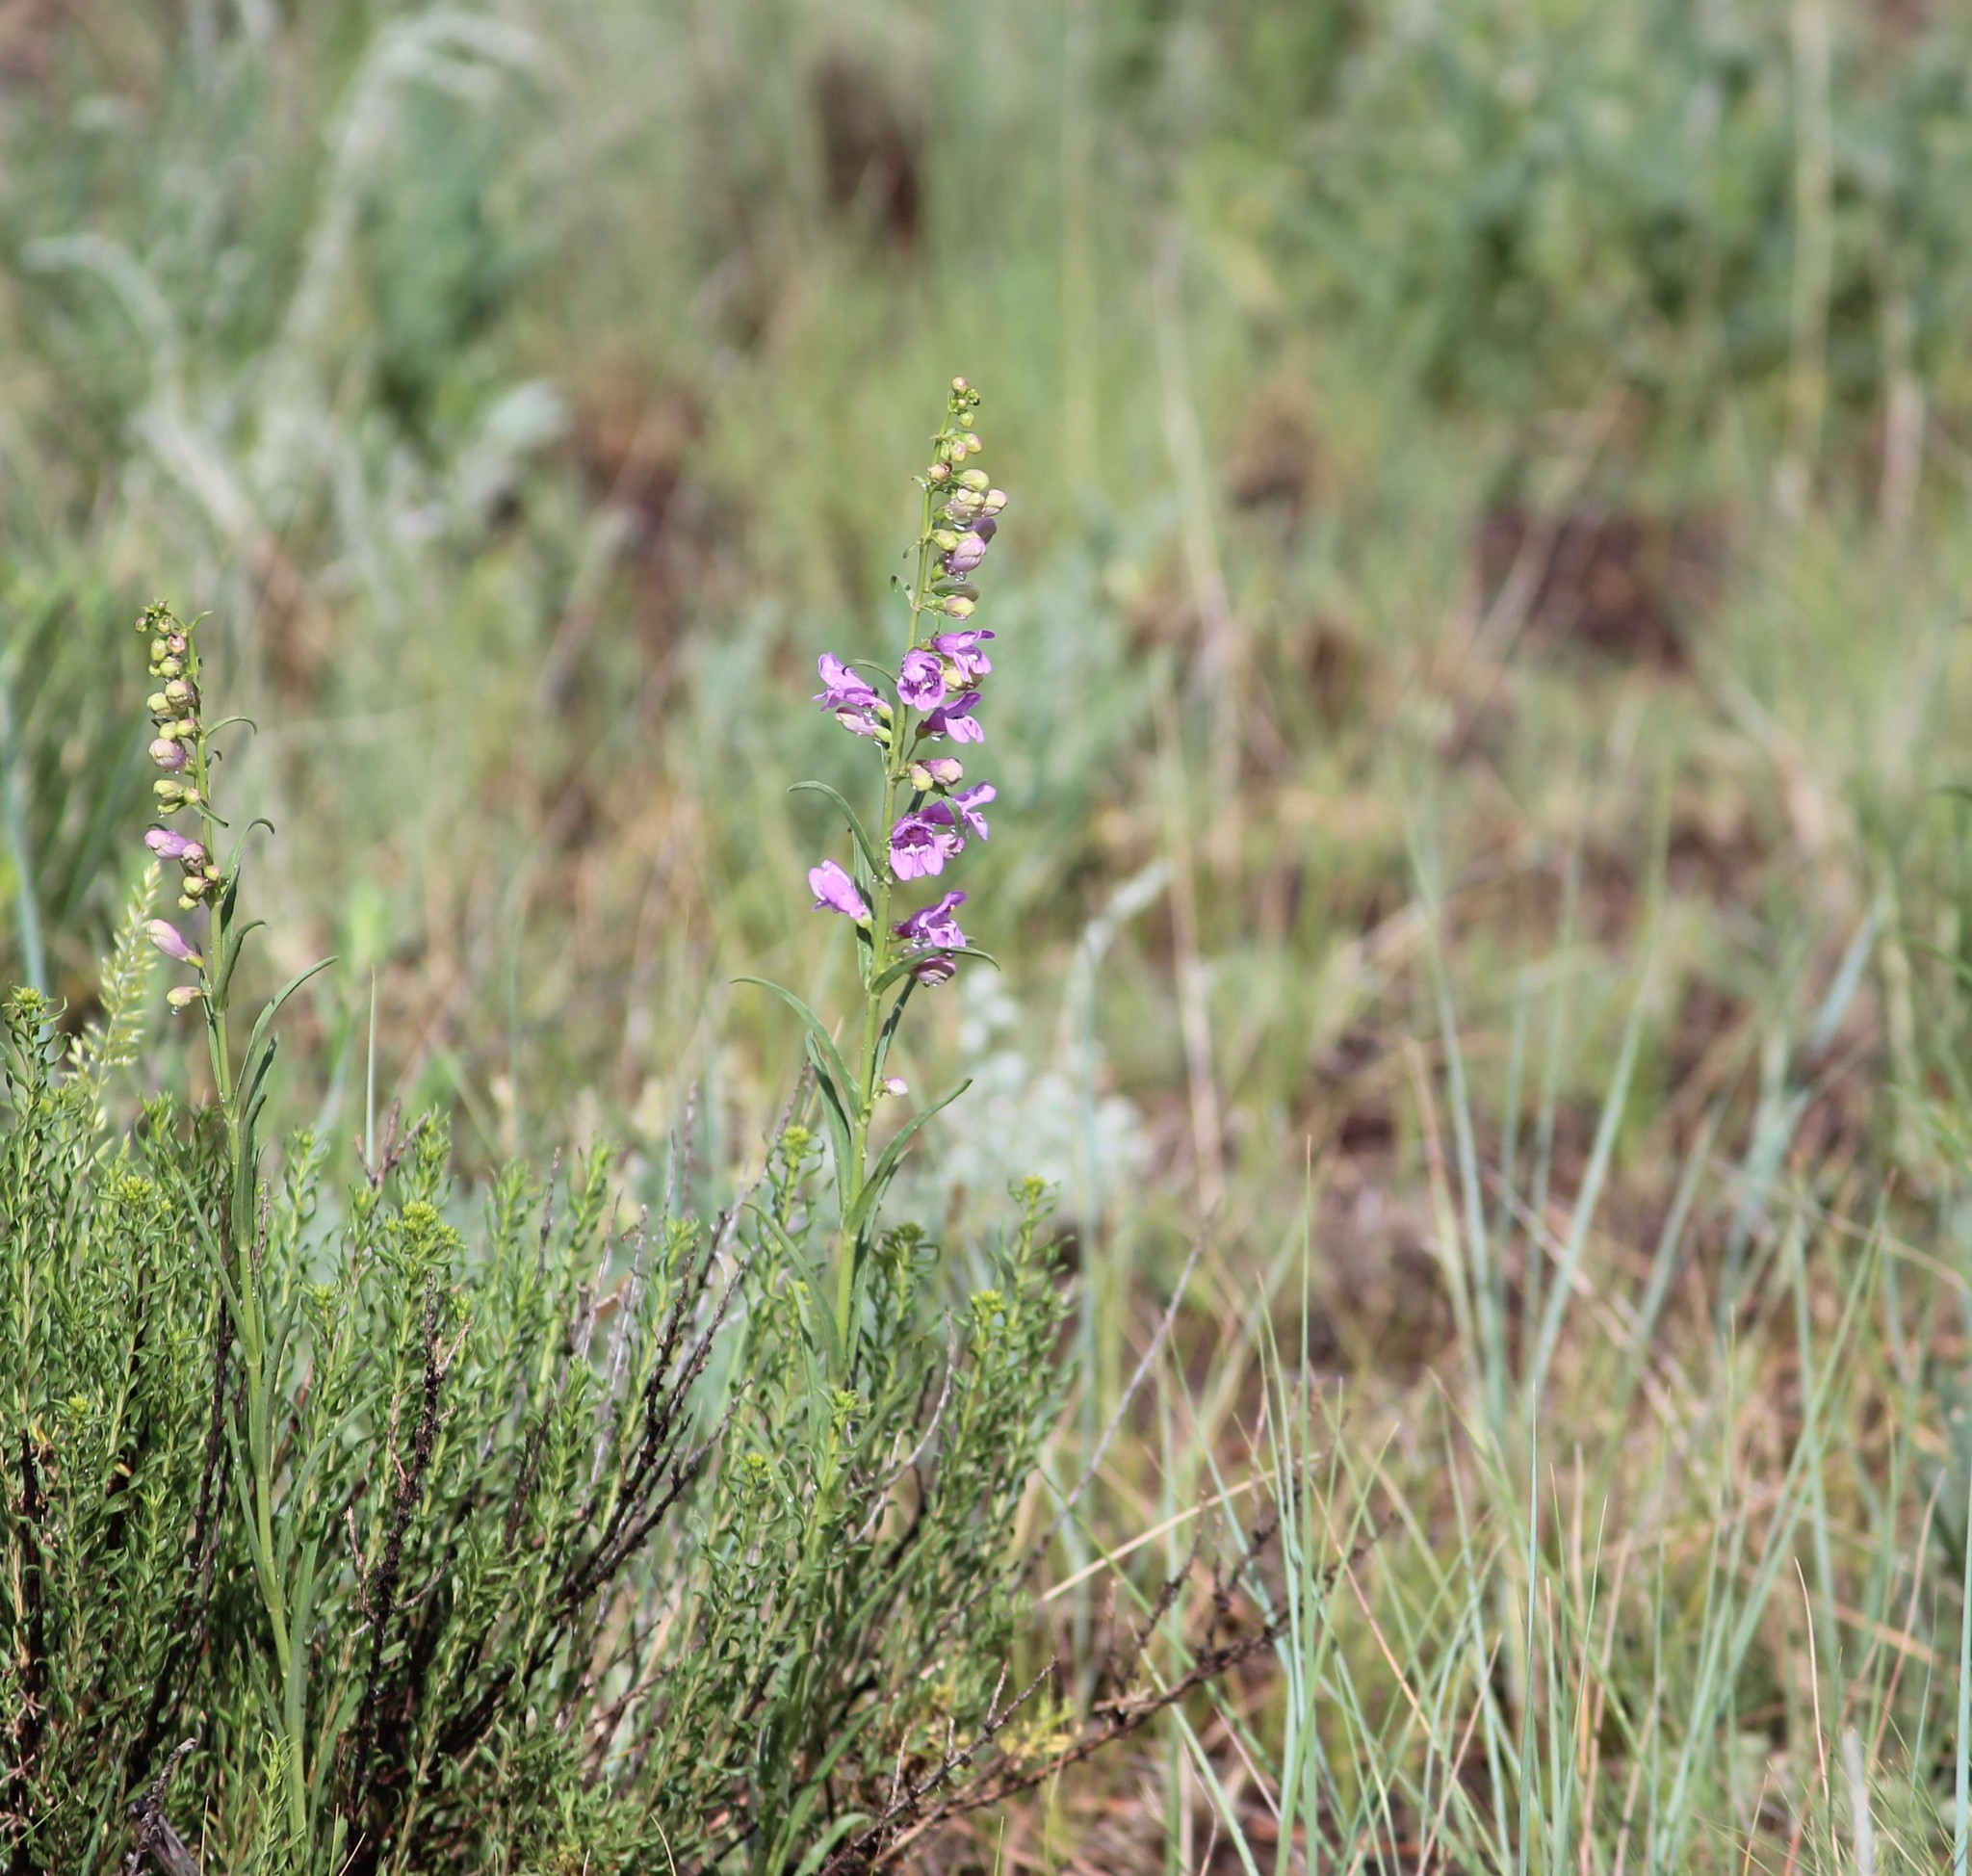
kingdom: Plantae
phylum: Tracheophyta
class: Magnoliopsida
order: Lamiales
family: Plantaginaceae
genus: Penstemon
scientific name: Penstemon virgatus
